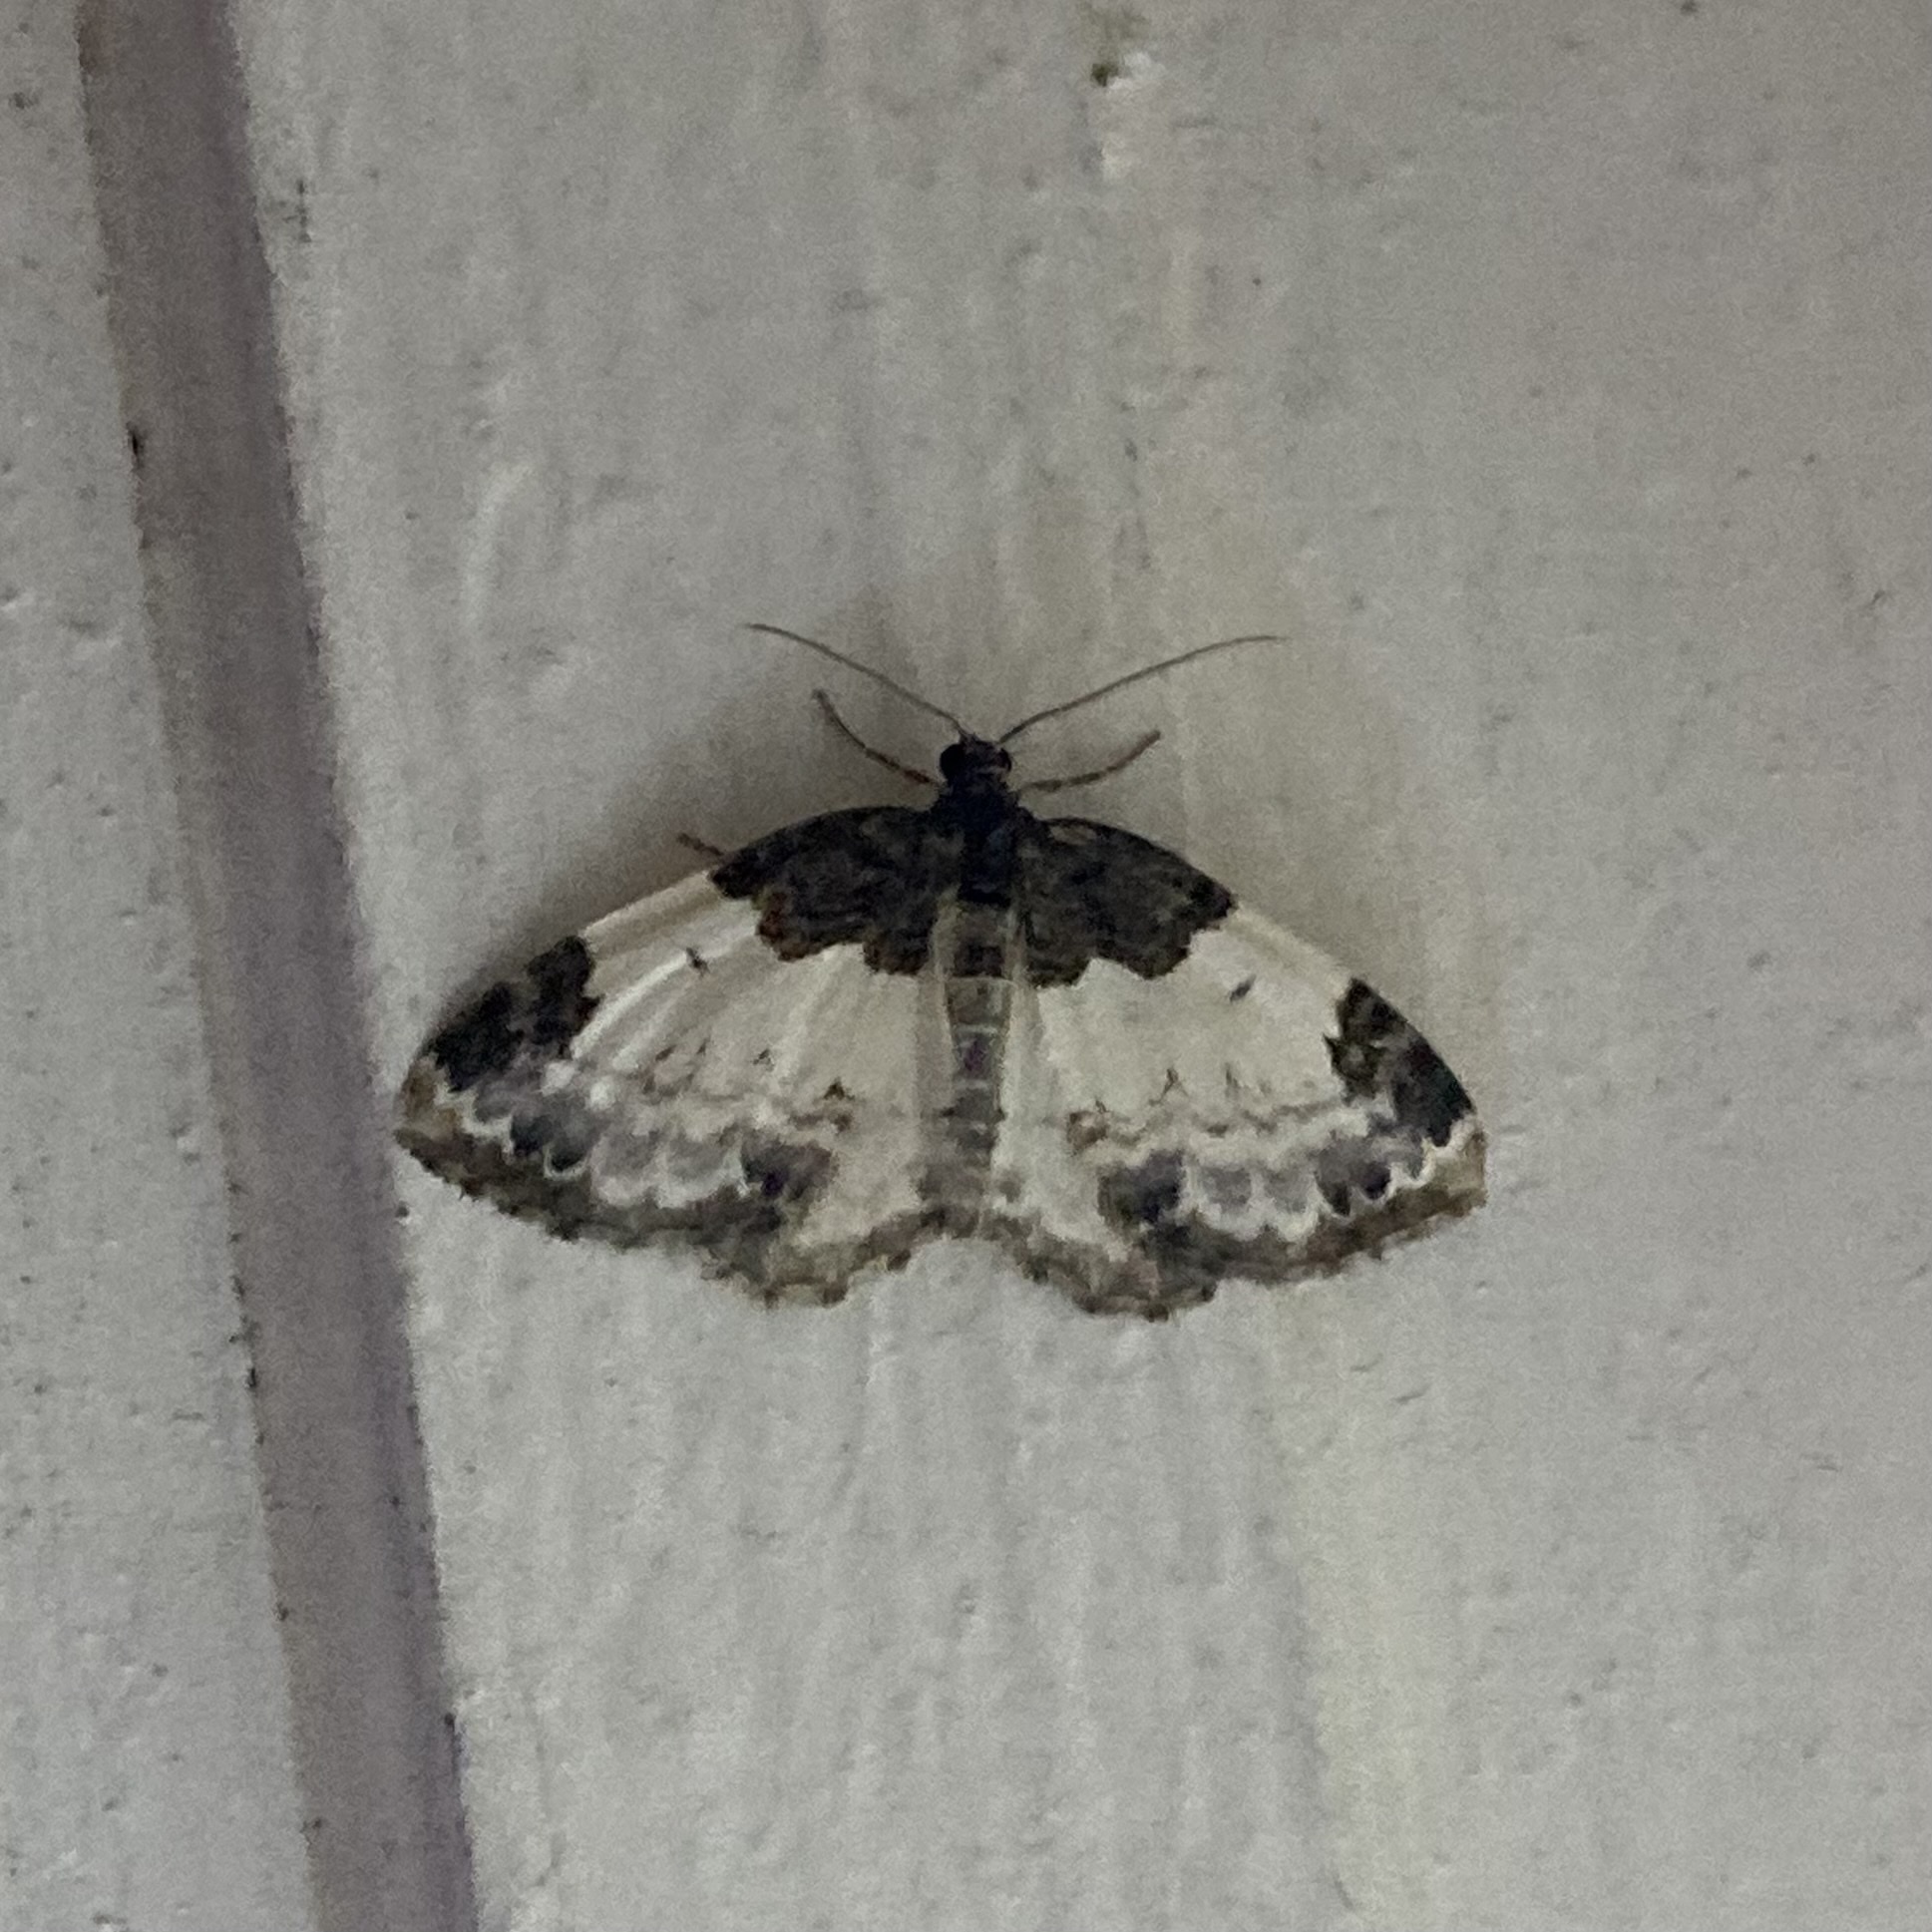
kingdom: Animalia
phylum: Arthropoda
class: Insecta
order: Lepidoptera
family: Geometridae
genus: Mesoleuca
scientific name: Mesoleuca ruficillata
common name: White-ribboned carpet moth
